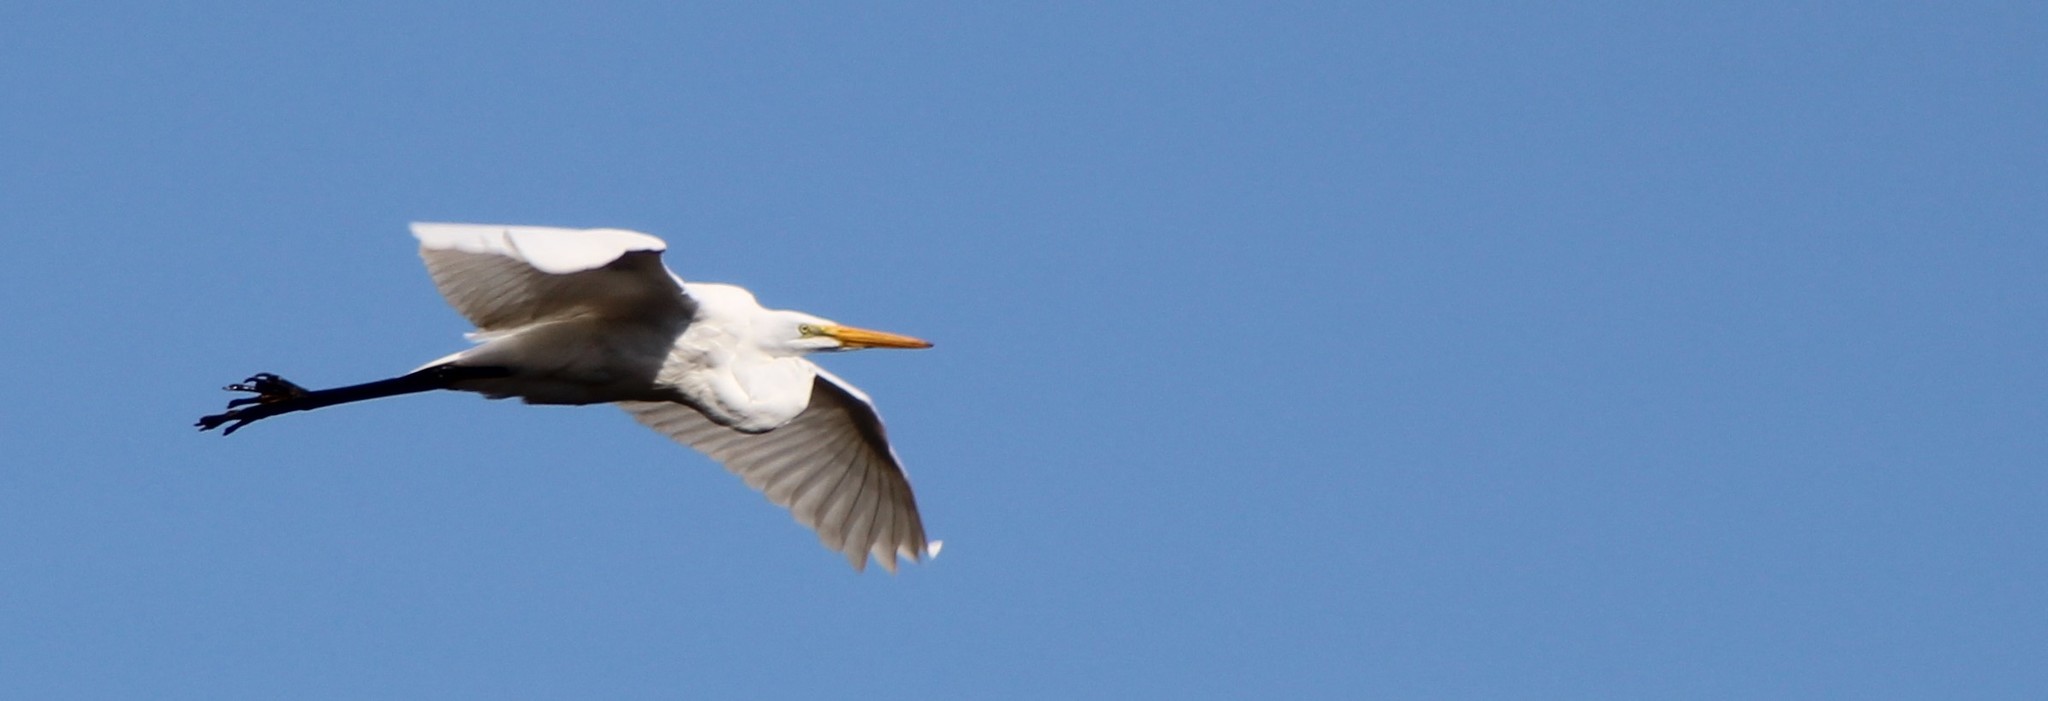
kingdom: Animalia
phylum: Chordata
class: Aves
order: Pelecaniformes
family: Ardeidae
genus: Ardea
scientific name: Ardea alba
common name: Great egret
